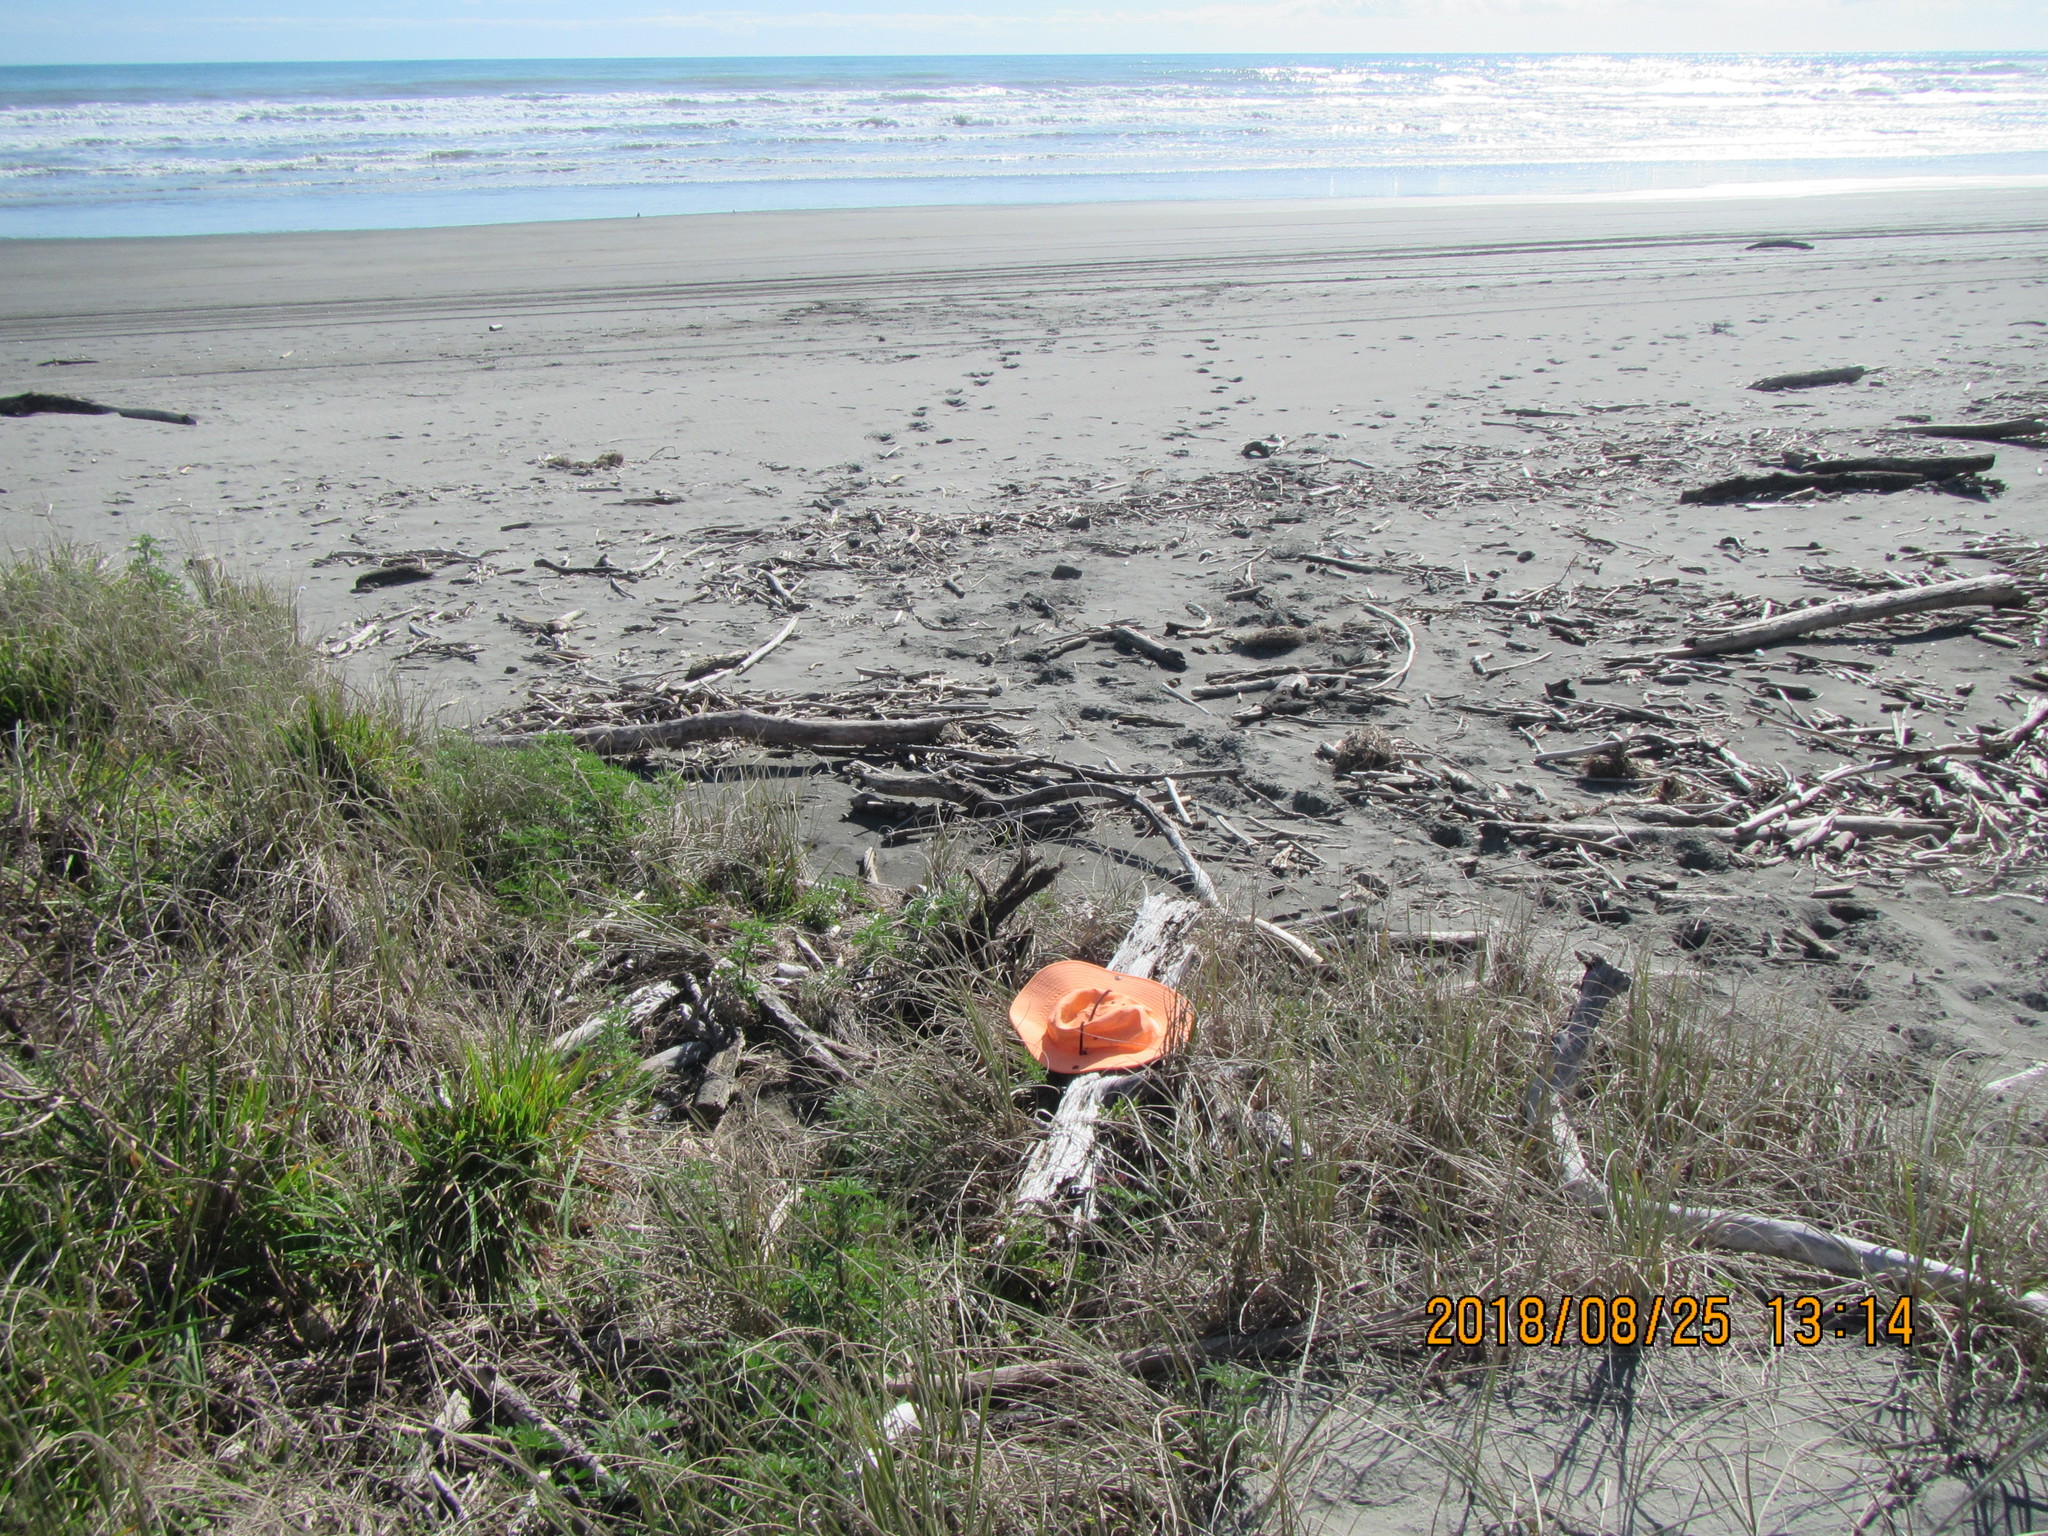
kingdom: Animalia
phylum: Platyhelminthes
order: Tricladida
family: Geoplanidae
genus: Caenoplana
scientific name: Caenoplana coerulea
